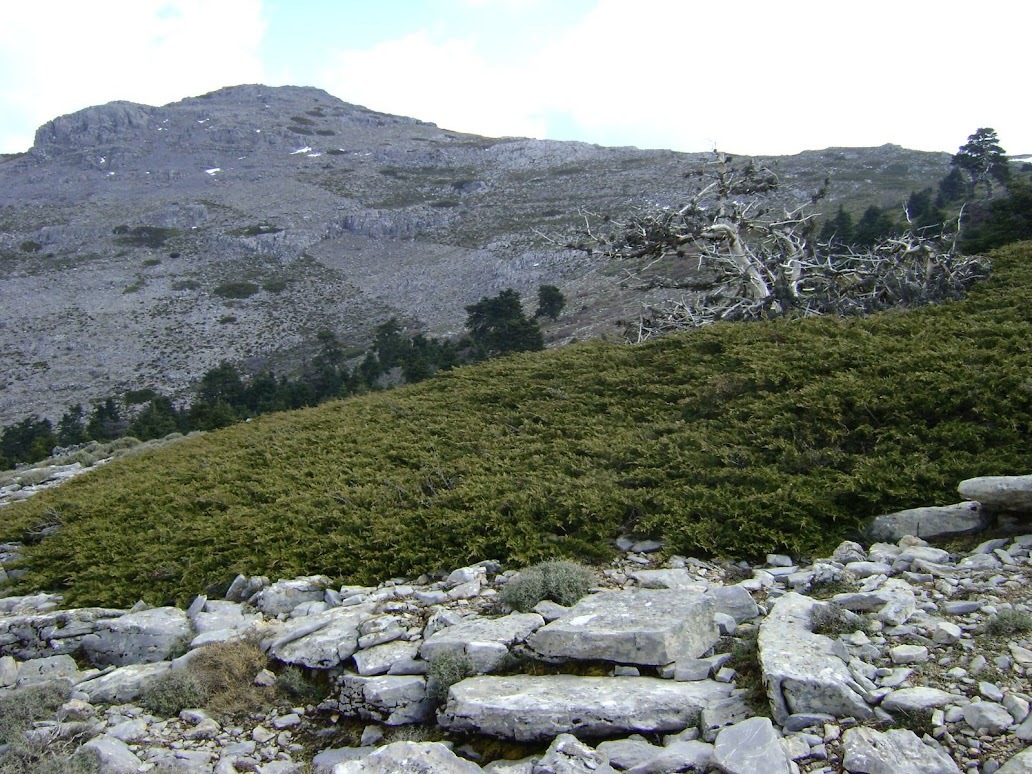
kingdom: Plantae
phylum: Tracheophyta
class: Pinopsida
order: Pinales
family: Cupressaceae
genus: Juniperus
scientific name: Juniperus sabina
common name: Savin
